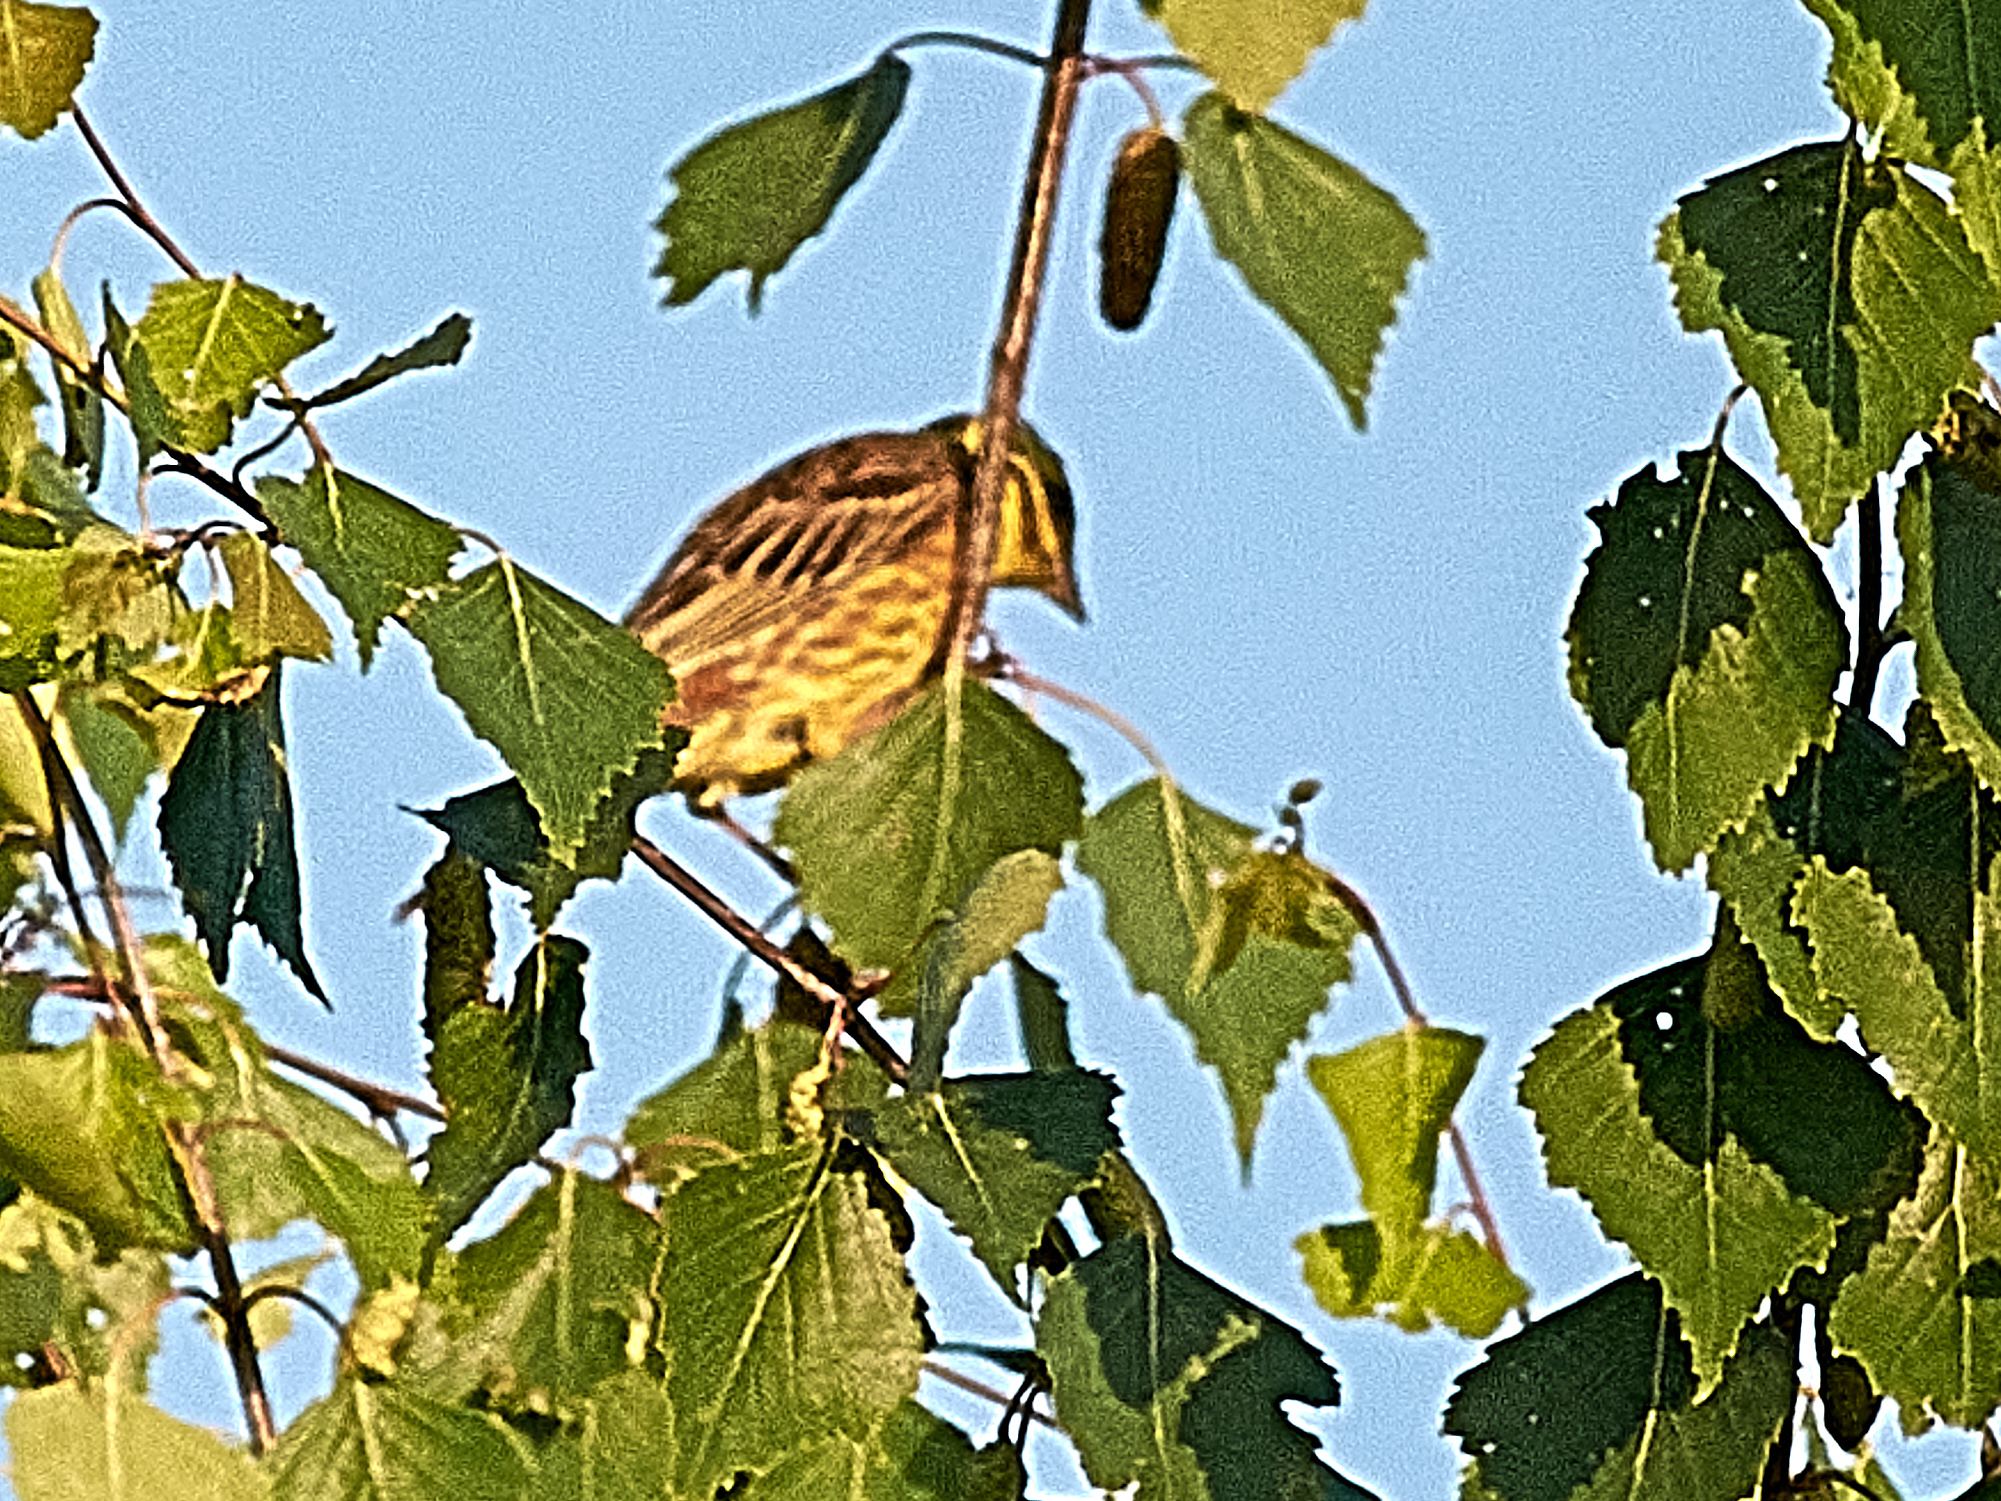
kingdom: Animalia
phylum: Chordata
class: Aves
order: Passeriformes
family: Emberizidae
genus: Emberiza
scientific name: Emberiza citrinella
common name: Yellowhammer
